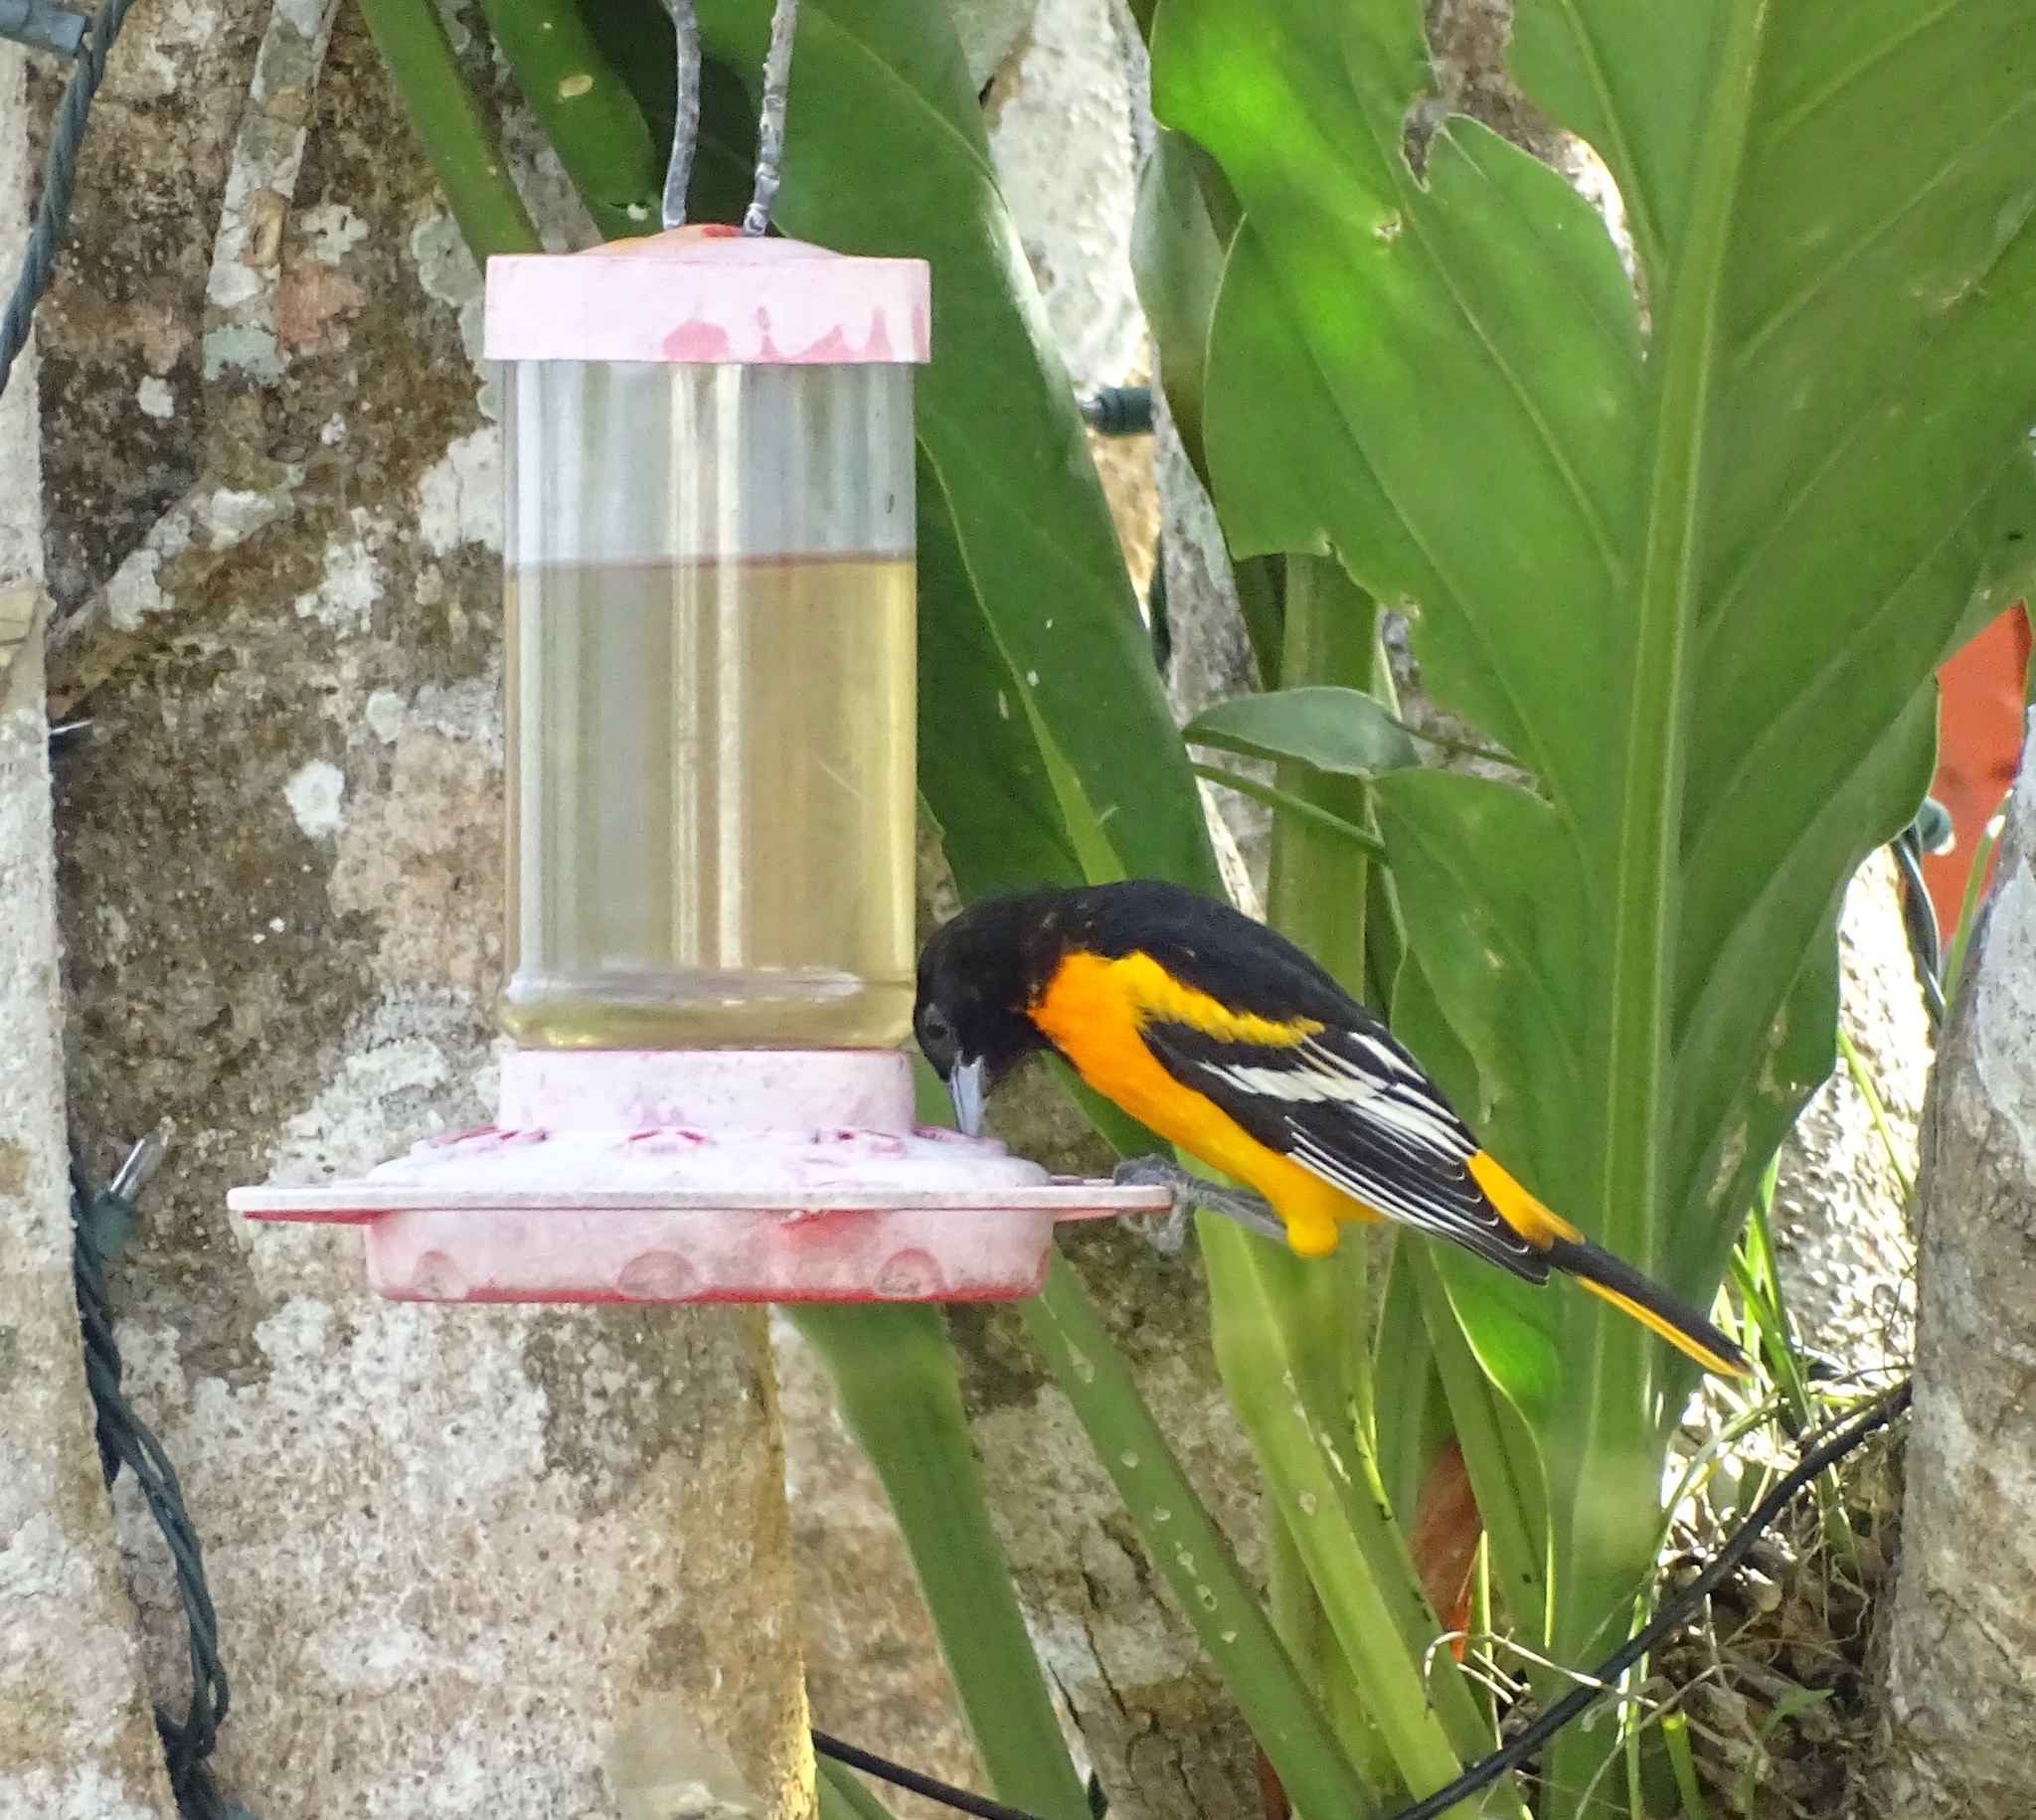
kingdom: Animalia
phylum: Chordata
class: Aves
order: Passeriformes
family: Icteridae
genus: Icterus
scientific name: Icterus galbula
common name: Baltimore oriole
